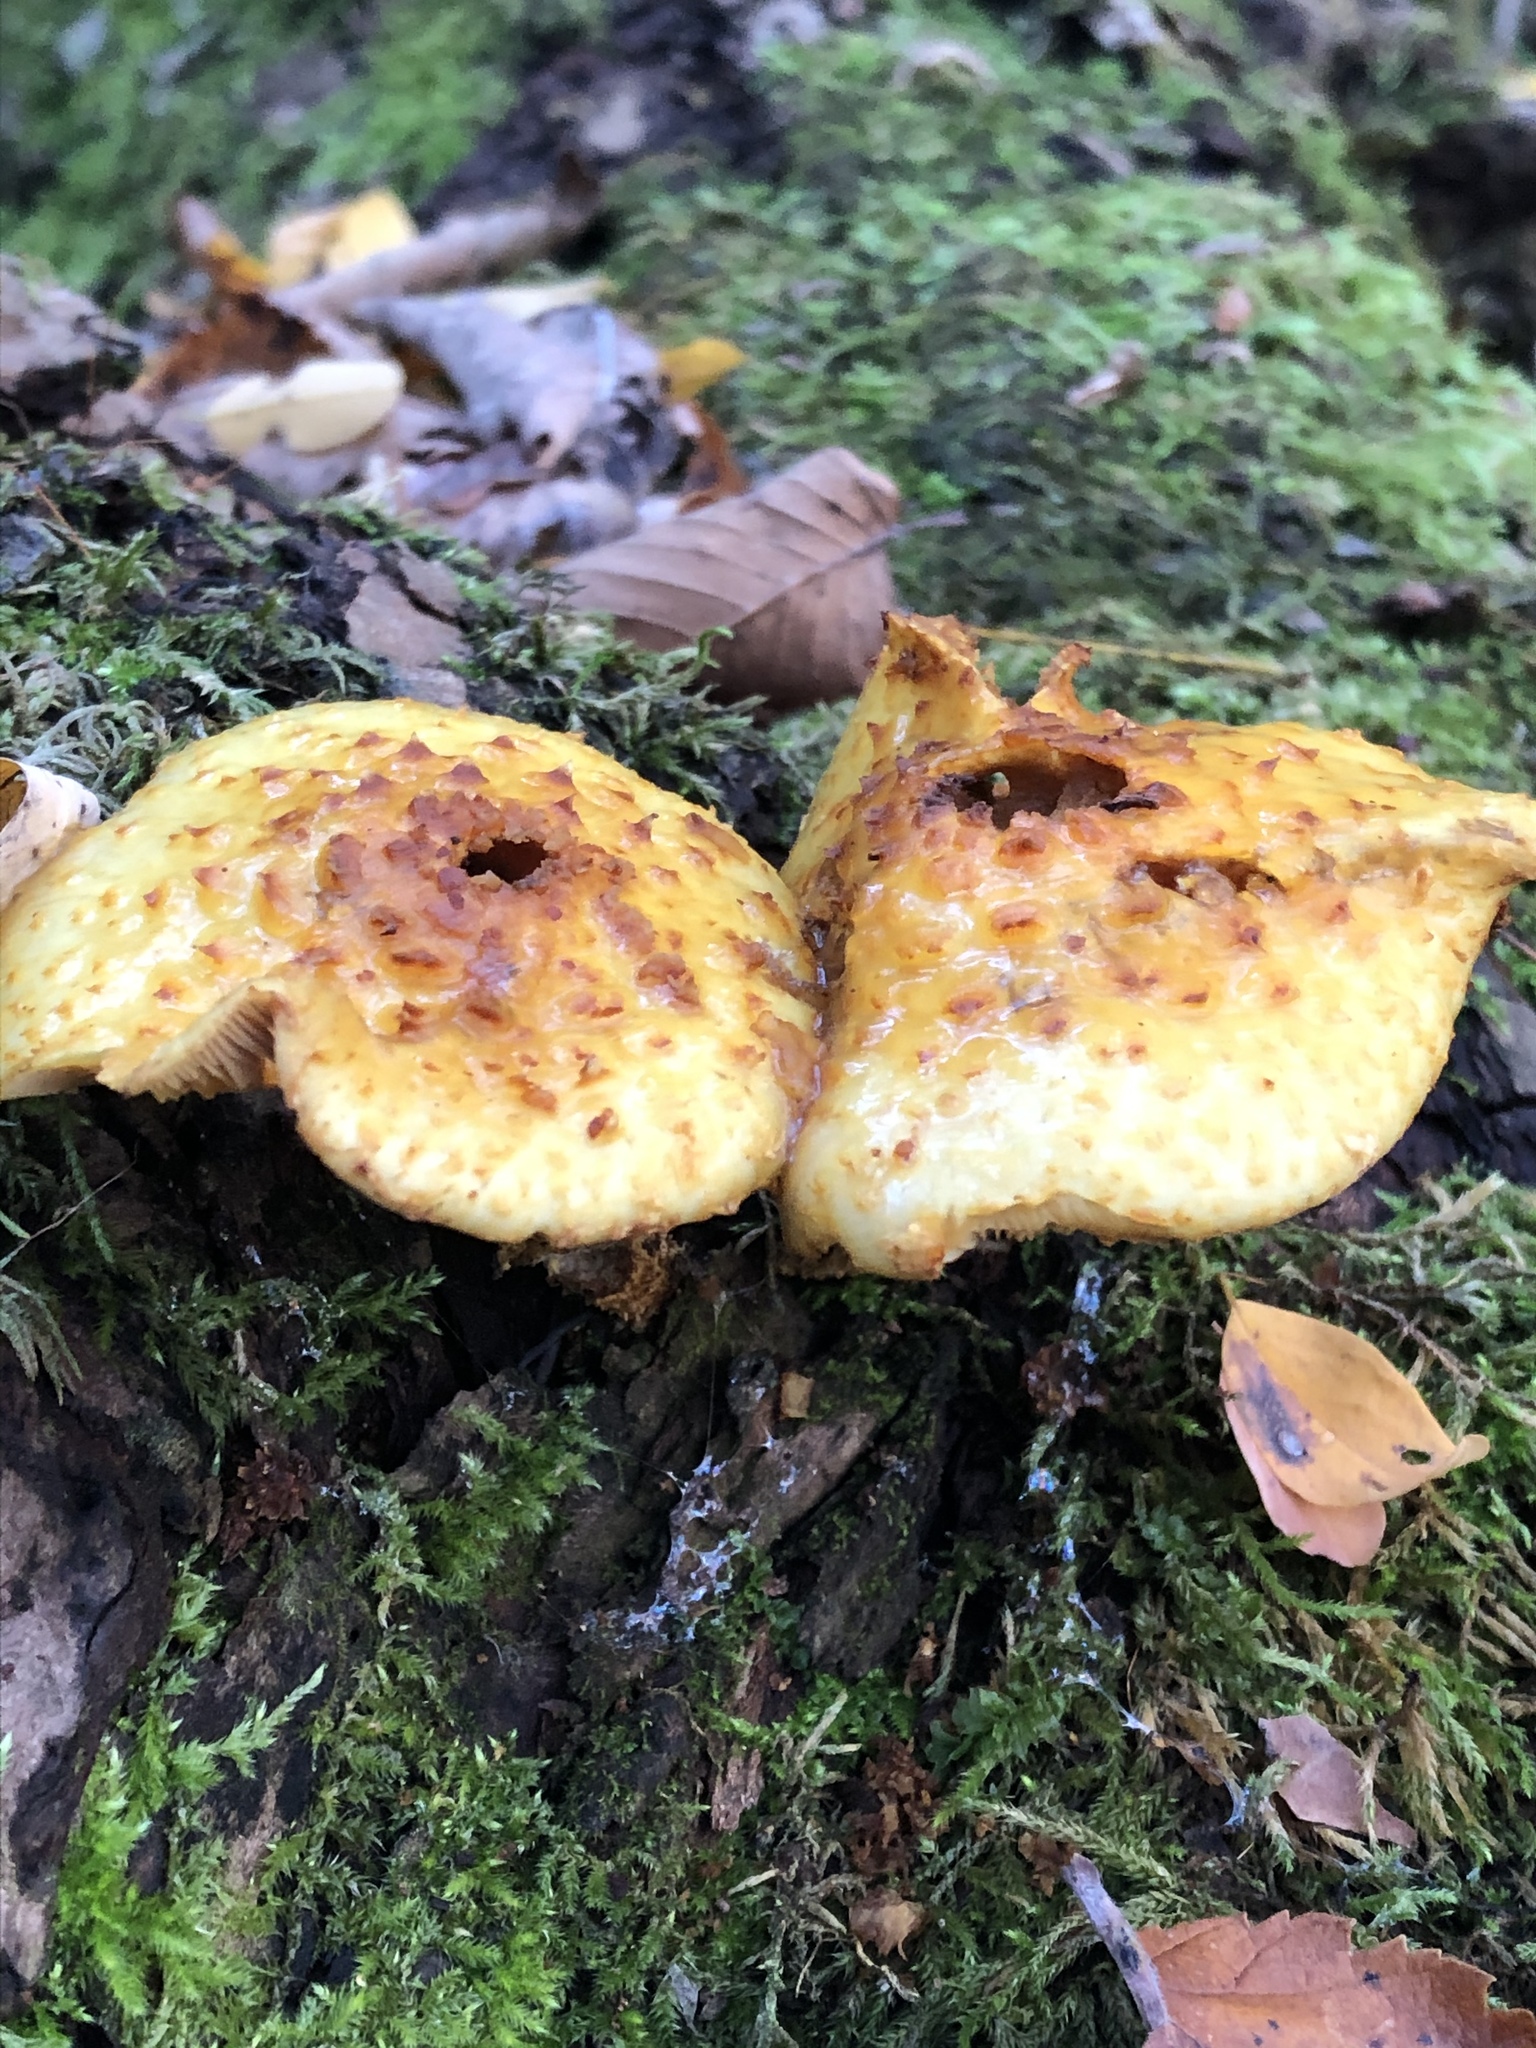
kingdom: Fungi
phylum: Basidiomycota
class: Agaricomycetes
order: Agaricales
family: Strophariaceae
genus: Pholiota
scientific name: Pholiota aurivella
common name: Golden scalycap
